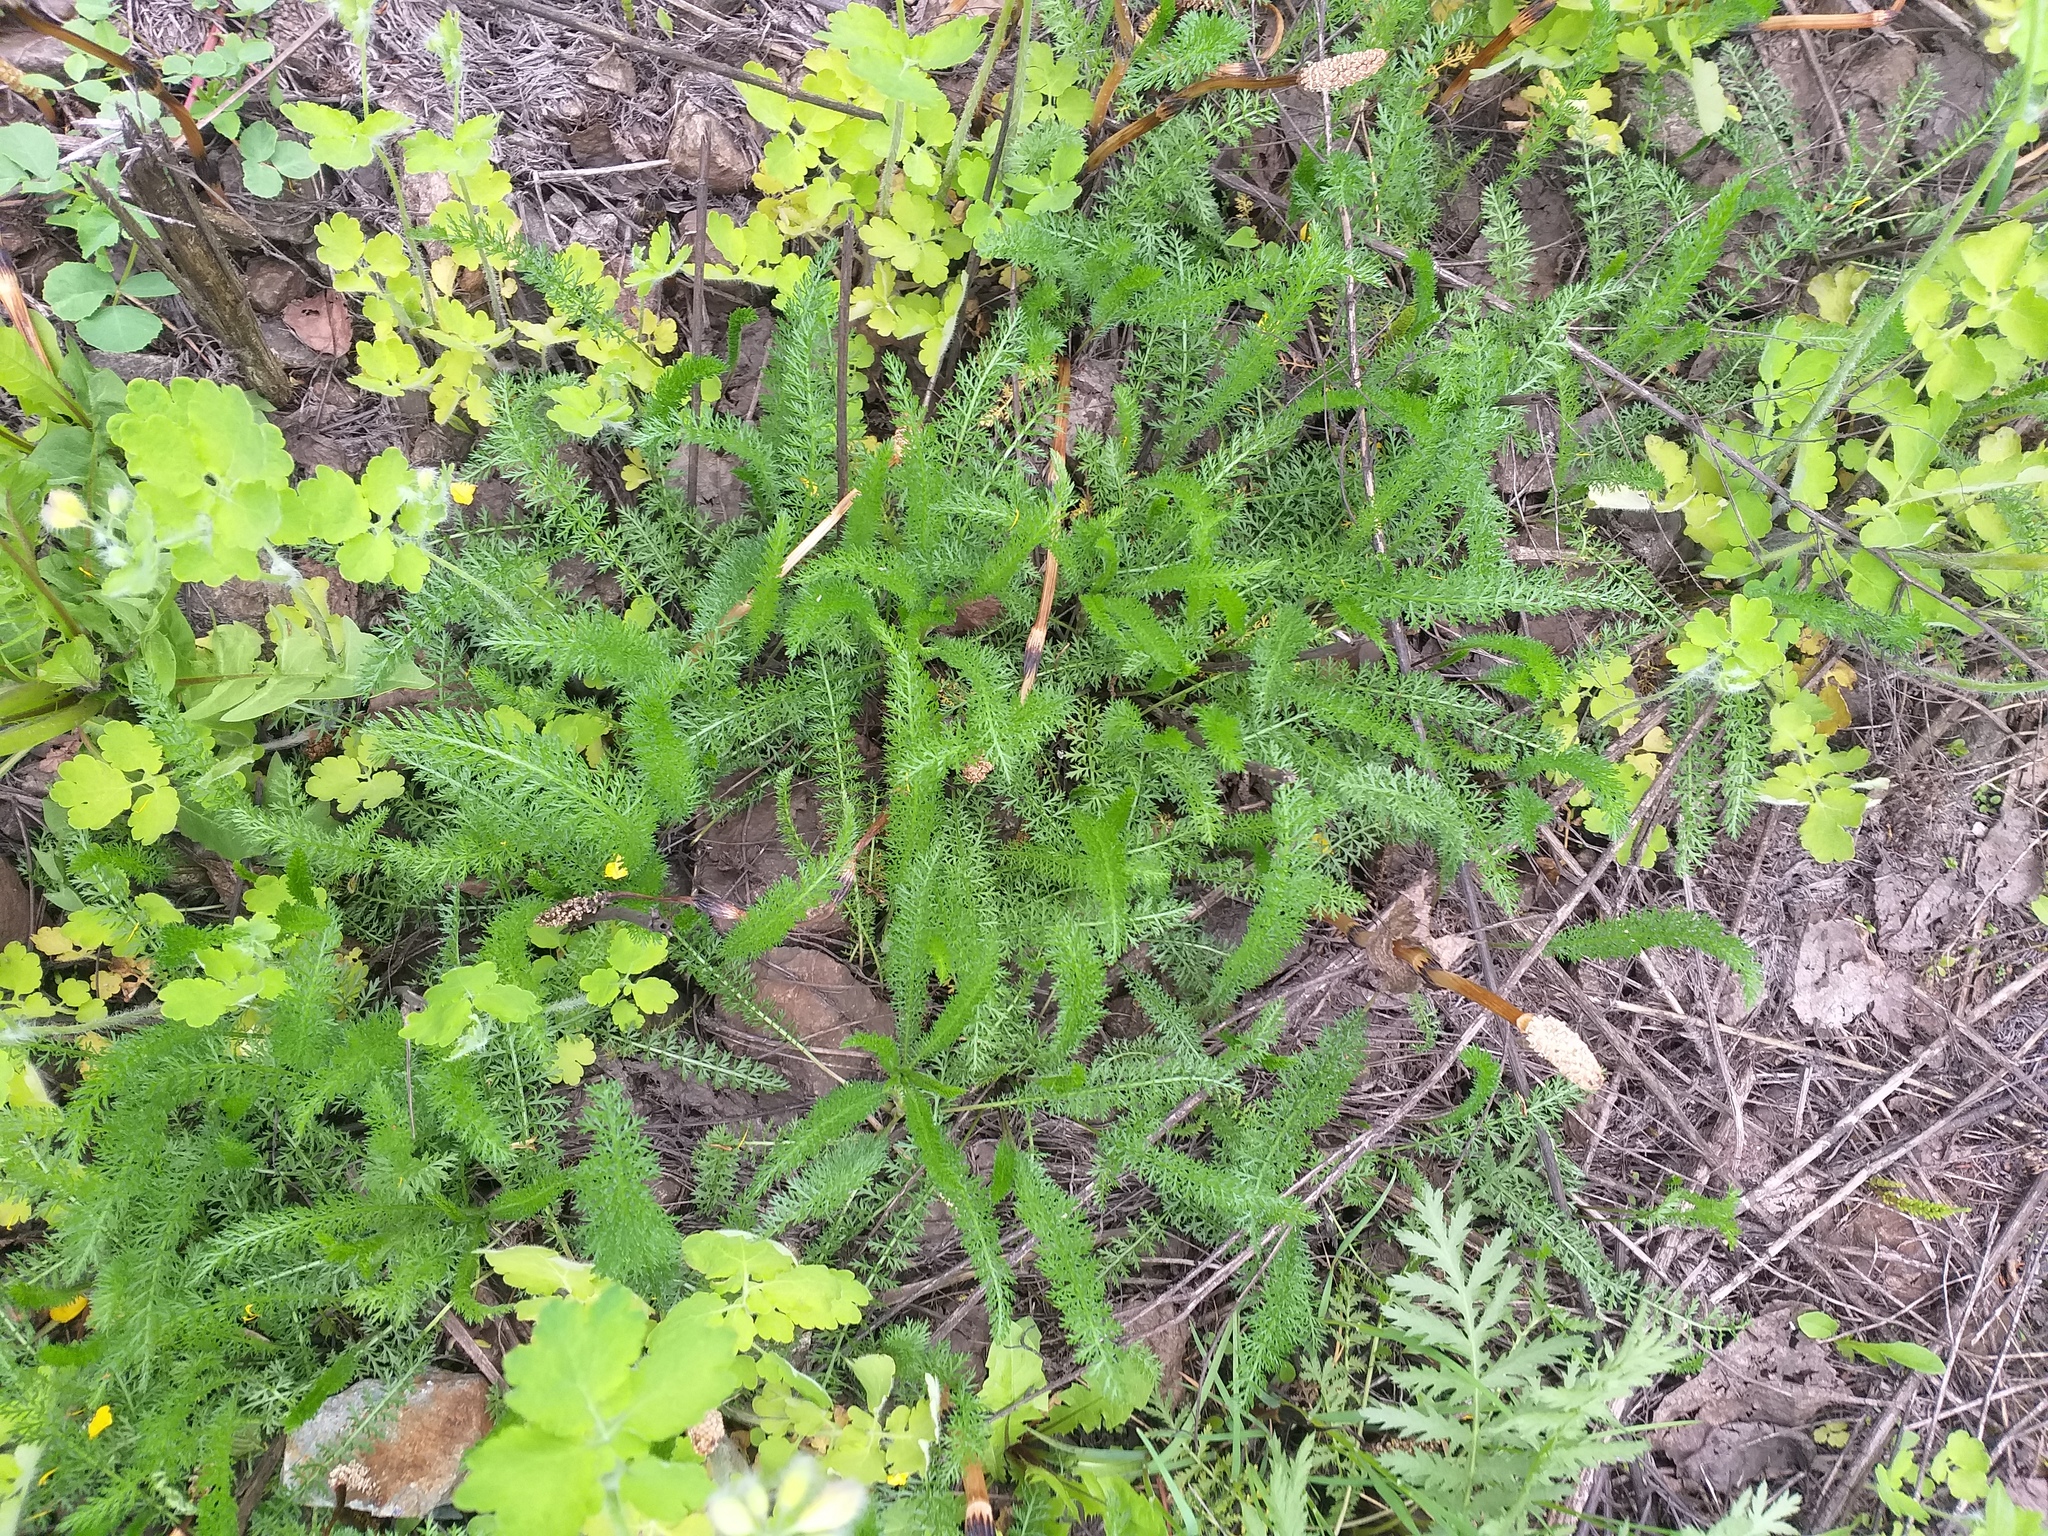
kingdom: Plantae
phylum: Tracheophyta
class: Magnoliopsida
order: Asterales
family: Asteraceae
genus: Achillea
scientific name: Achillea millefolium
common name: Yarrow
